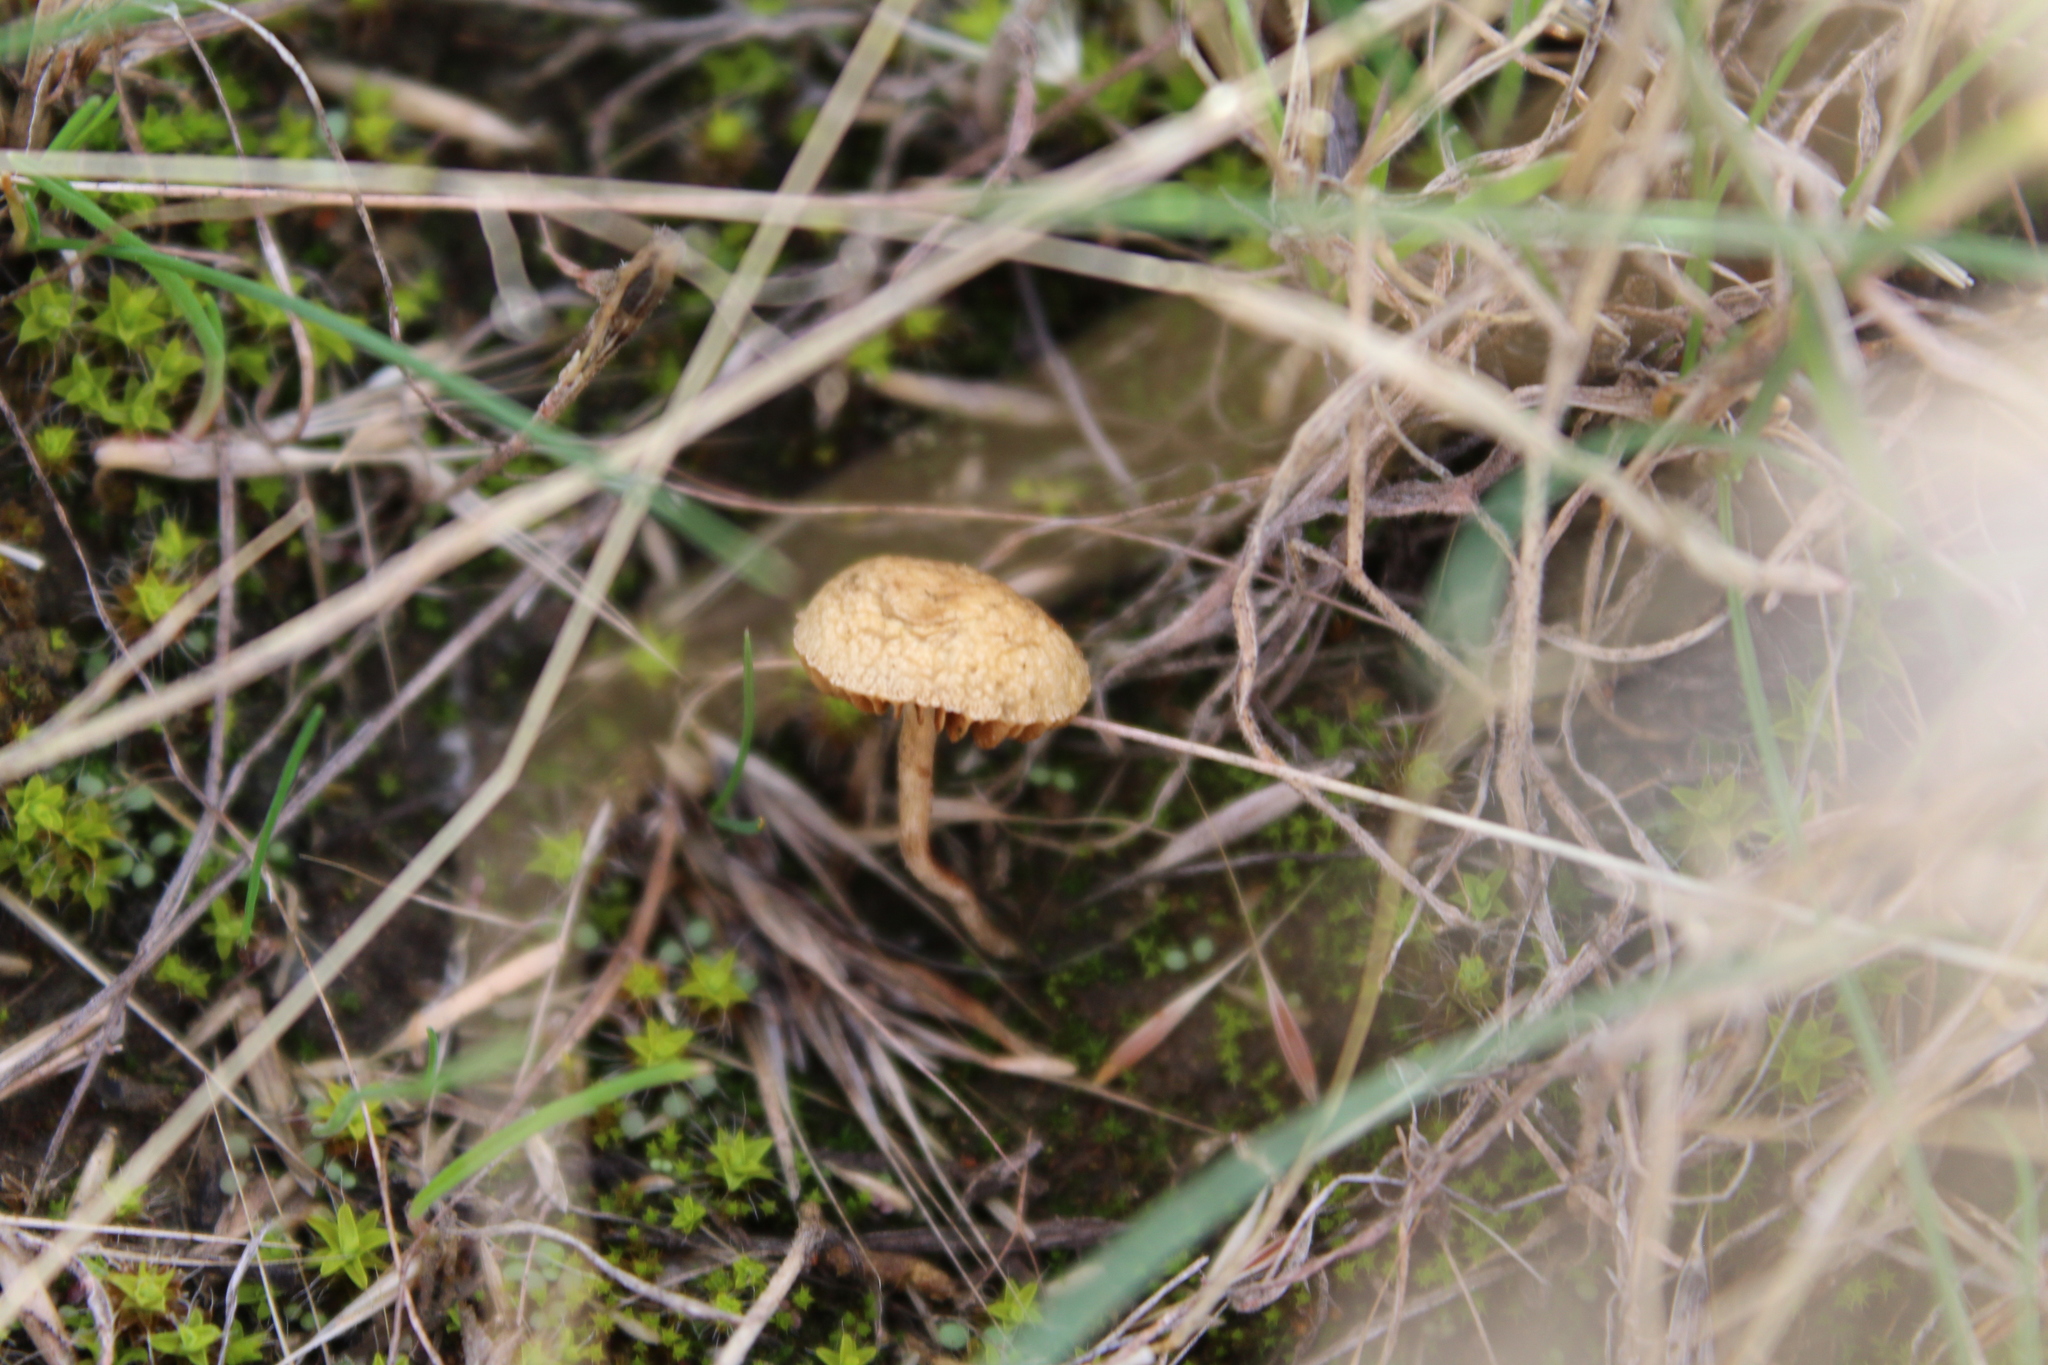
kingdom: Fungi
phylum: Basidiomycota
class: Agaricomycetes
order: Agaricales
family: Strophariaceae
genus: Agrocybe
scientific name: Agrocybe pediades
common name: Common fieldcap
